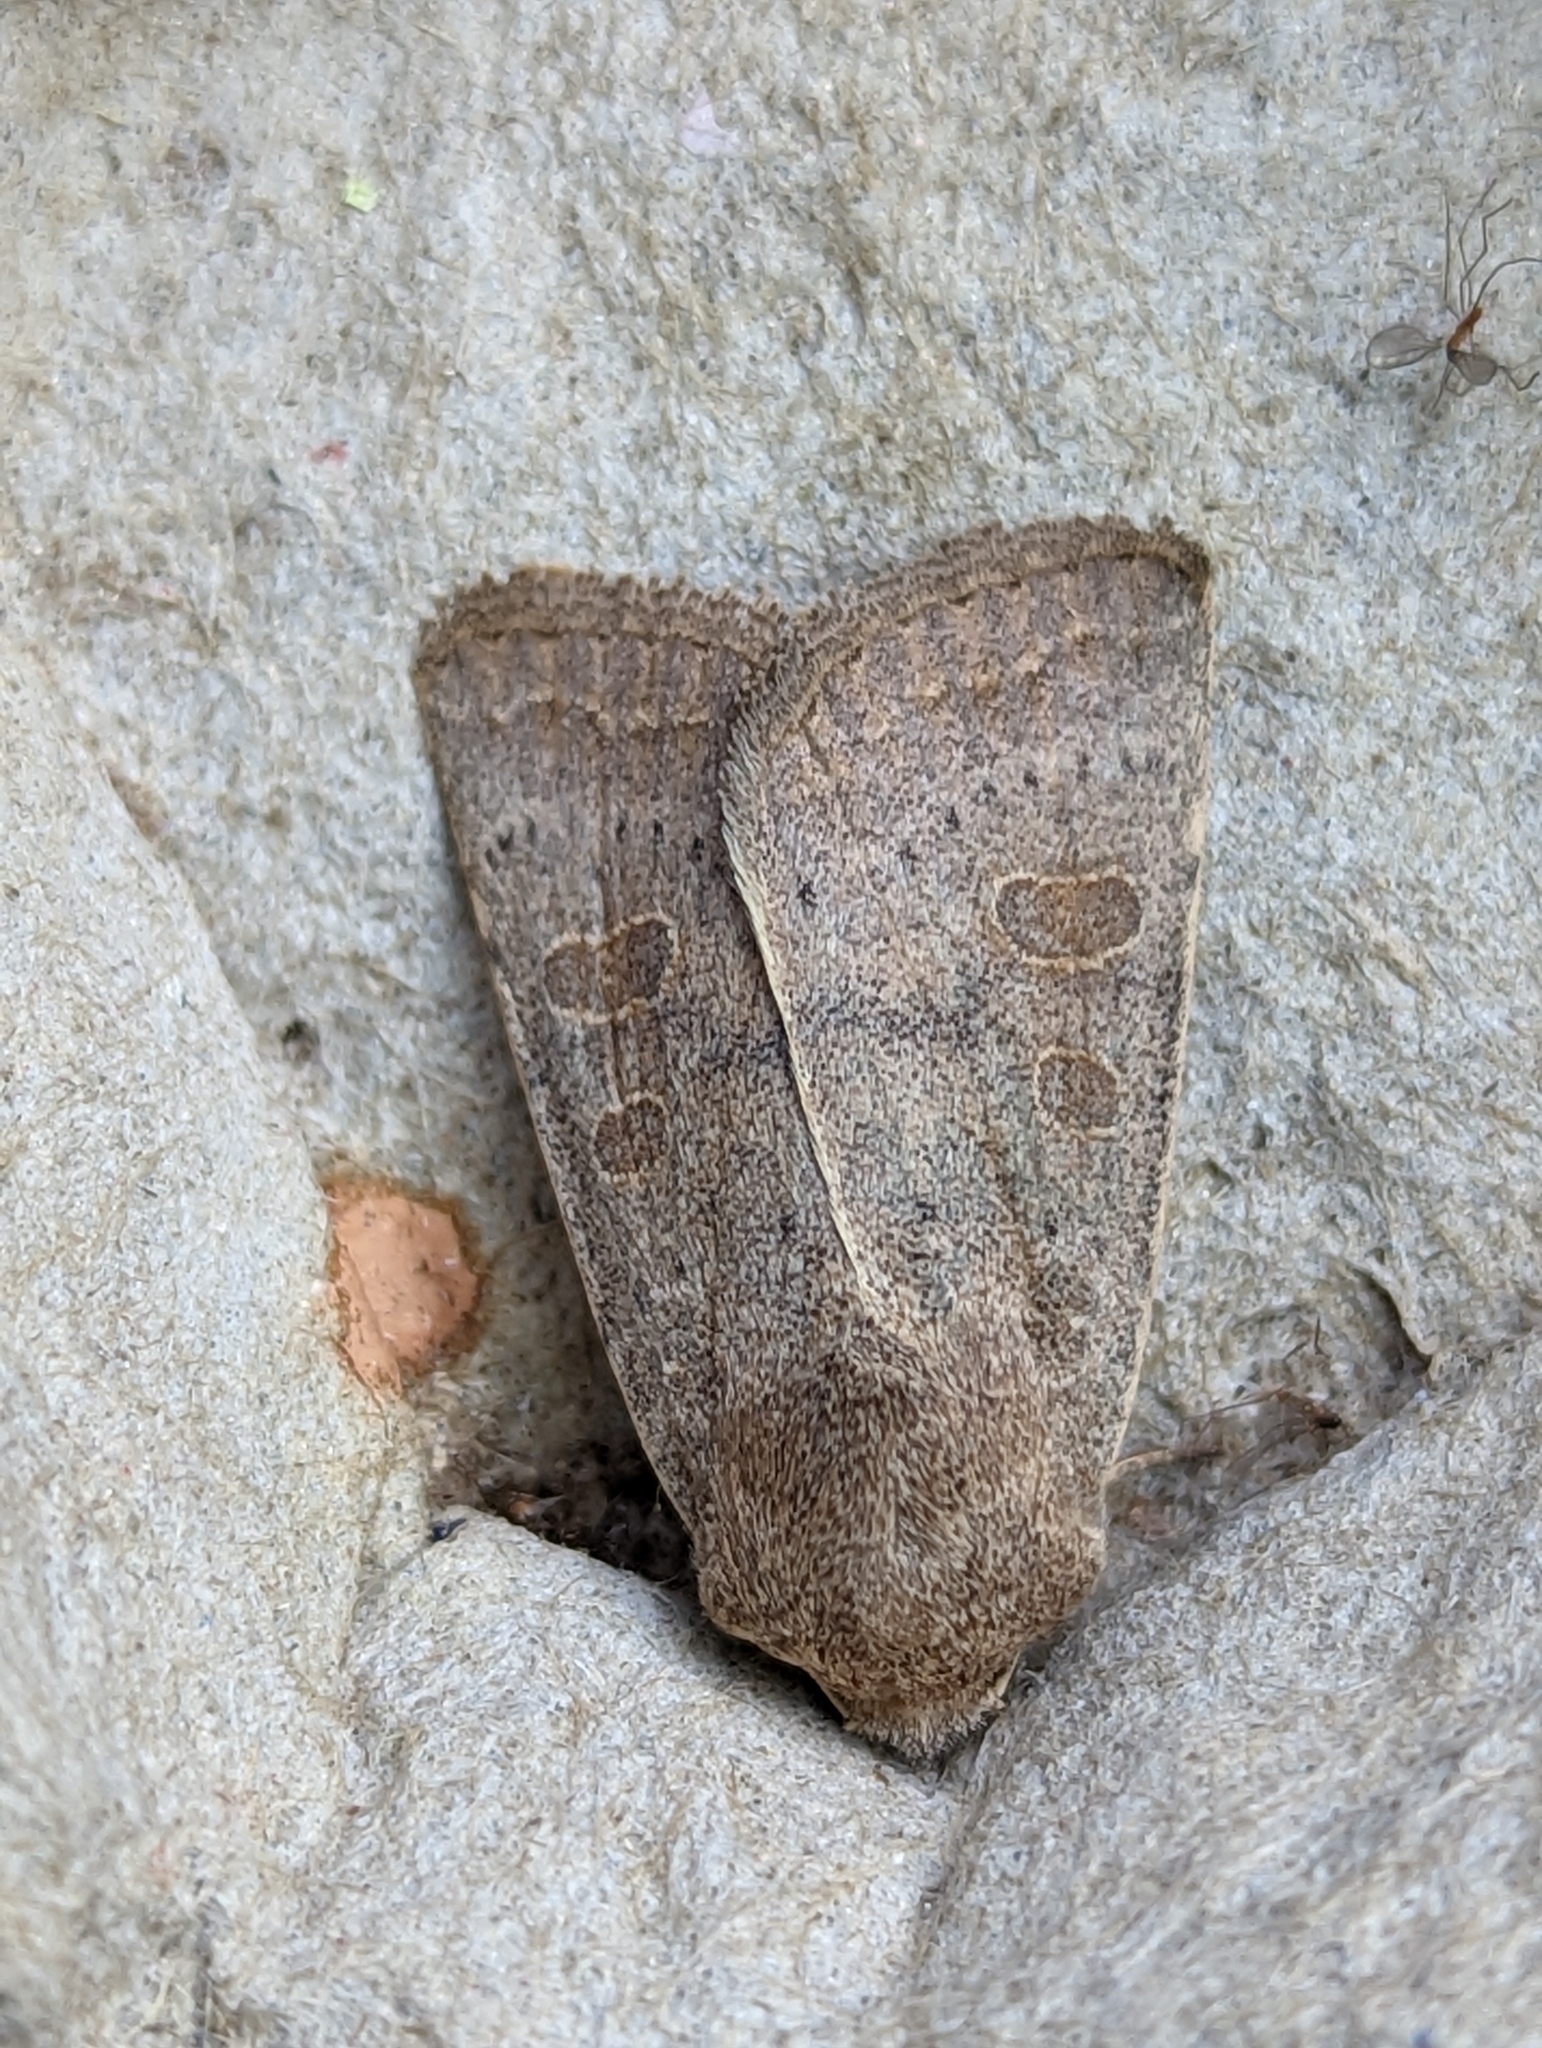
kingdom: Animalia
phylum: Arthropoda
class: Insecta
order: Lepidoptera
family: Noctuidae
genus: Hoplodrina
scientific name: Hoplodrina ambigua
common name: Vine's rustic
